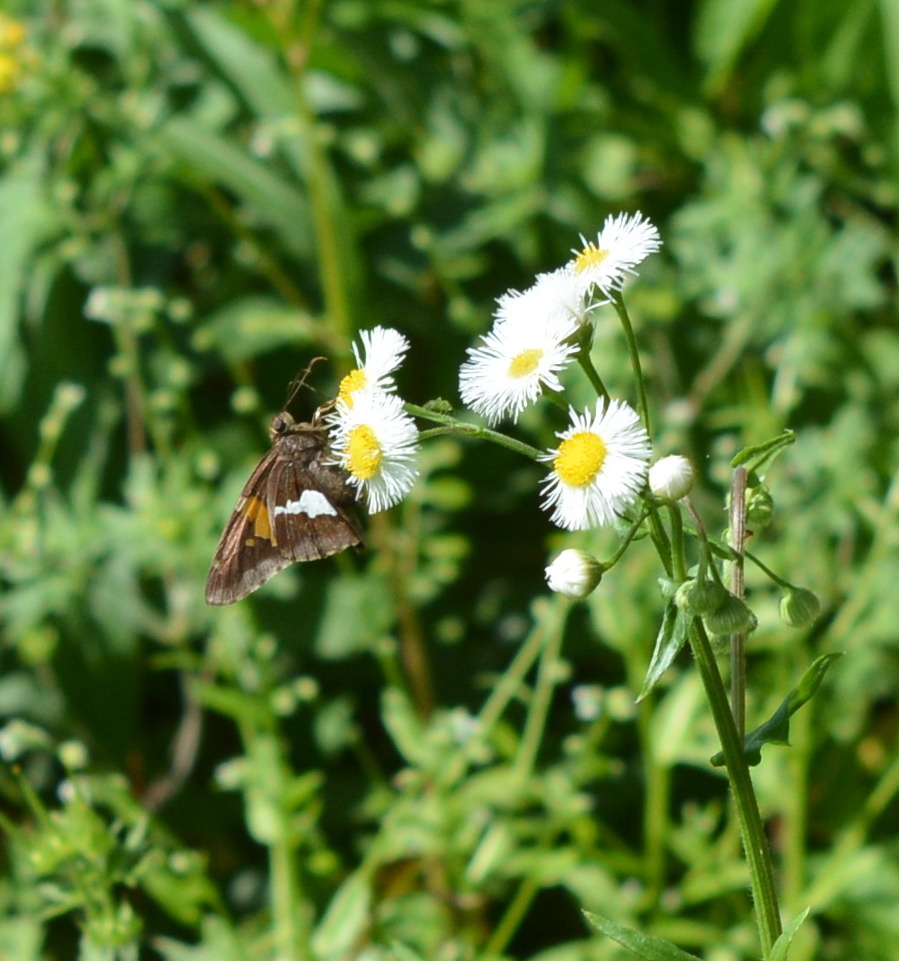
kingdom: Animalia
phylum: Arthropoda
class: Insecta
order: Lepidoptera
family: Hesperiidae
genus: Epargyreus
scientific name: Epargyreus clarus
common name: Silver-spotted skipper
